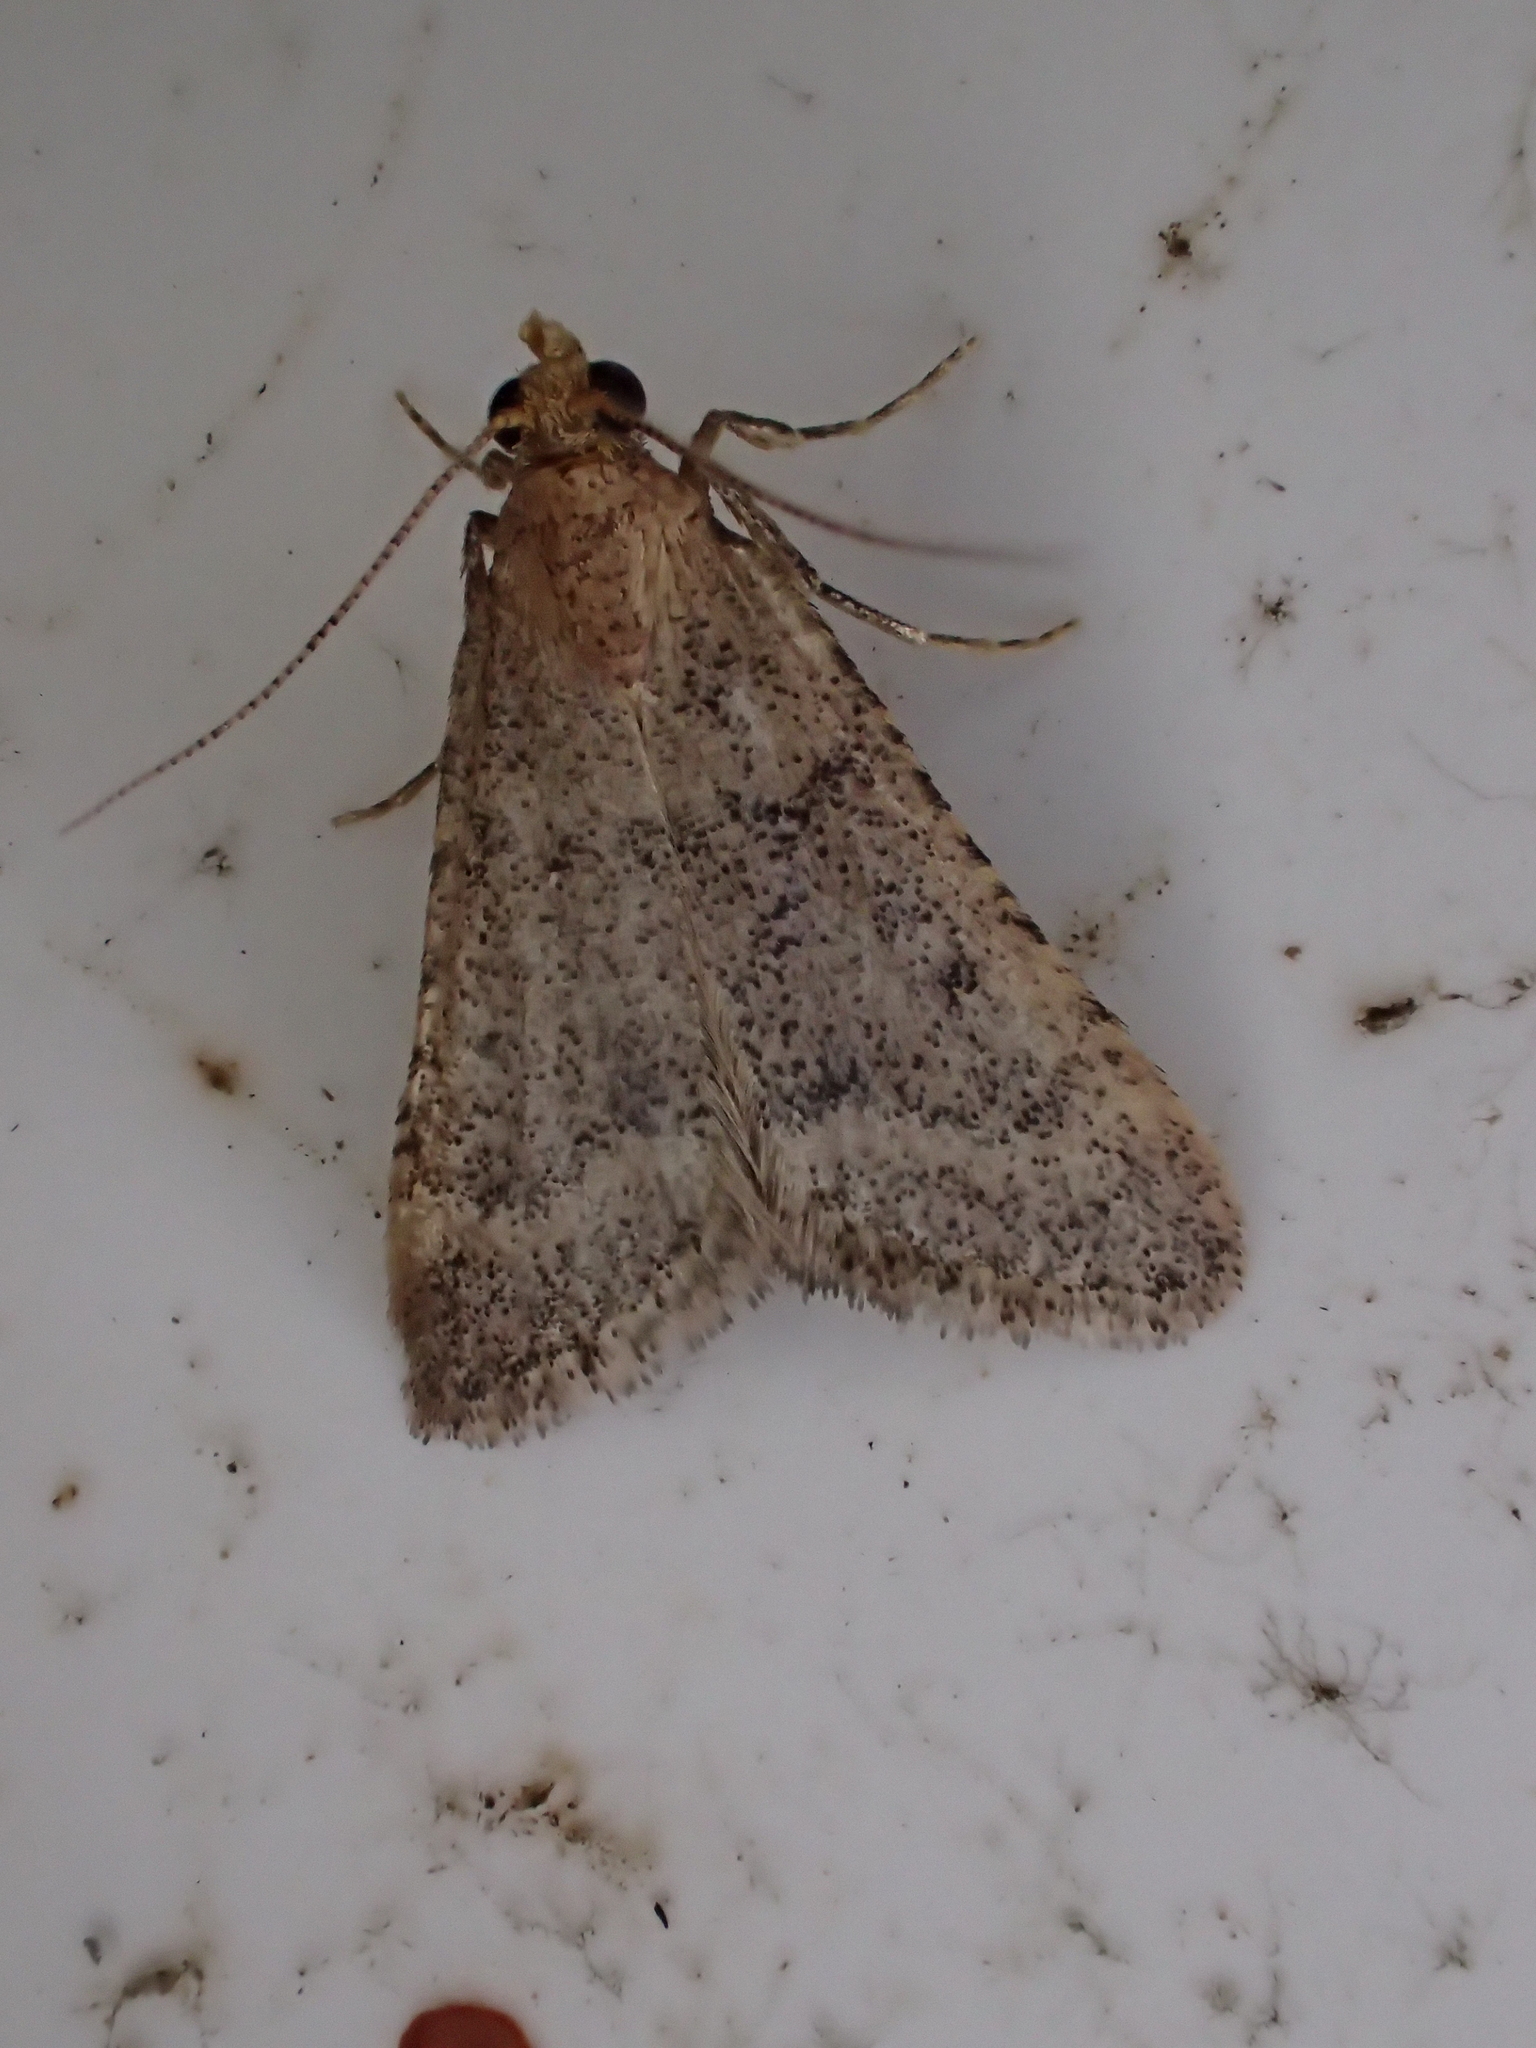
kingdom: Animalia
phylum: Arthropoda
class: Insecta
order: Lepidoptera
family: Pyralidae
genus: Bostra
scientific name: Bostra obsoletalis
